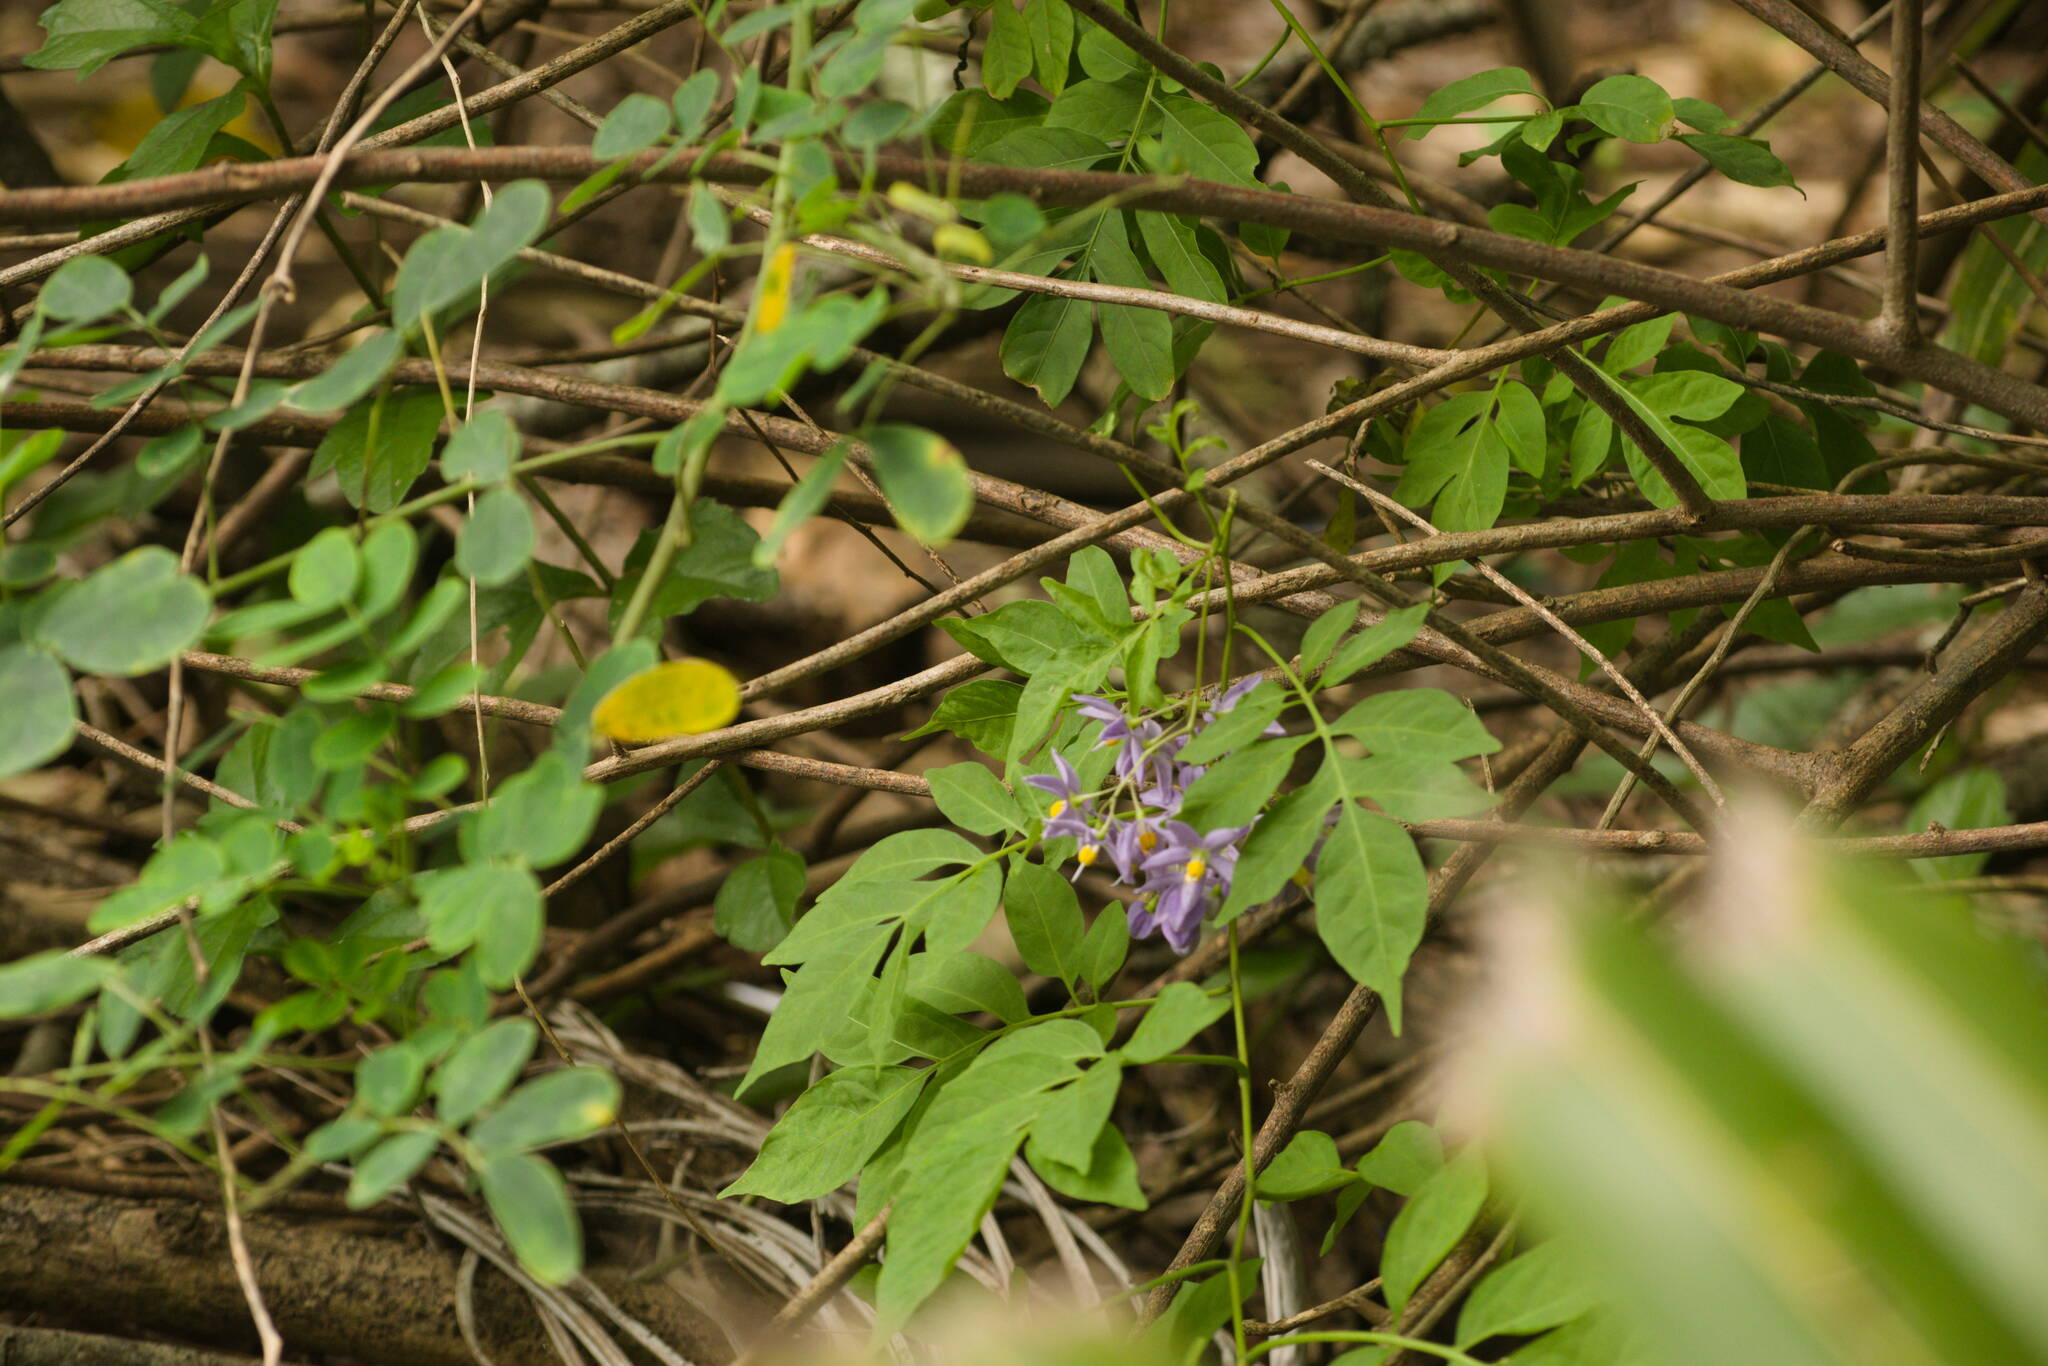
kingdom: Plantae
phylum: Tracheophyta
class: Magnoliopsida
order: Solanales
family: Solanaceae
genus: Solanum
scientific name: Solanum seaforthianum
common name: Brazilian nightshade
